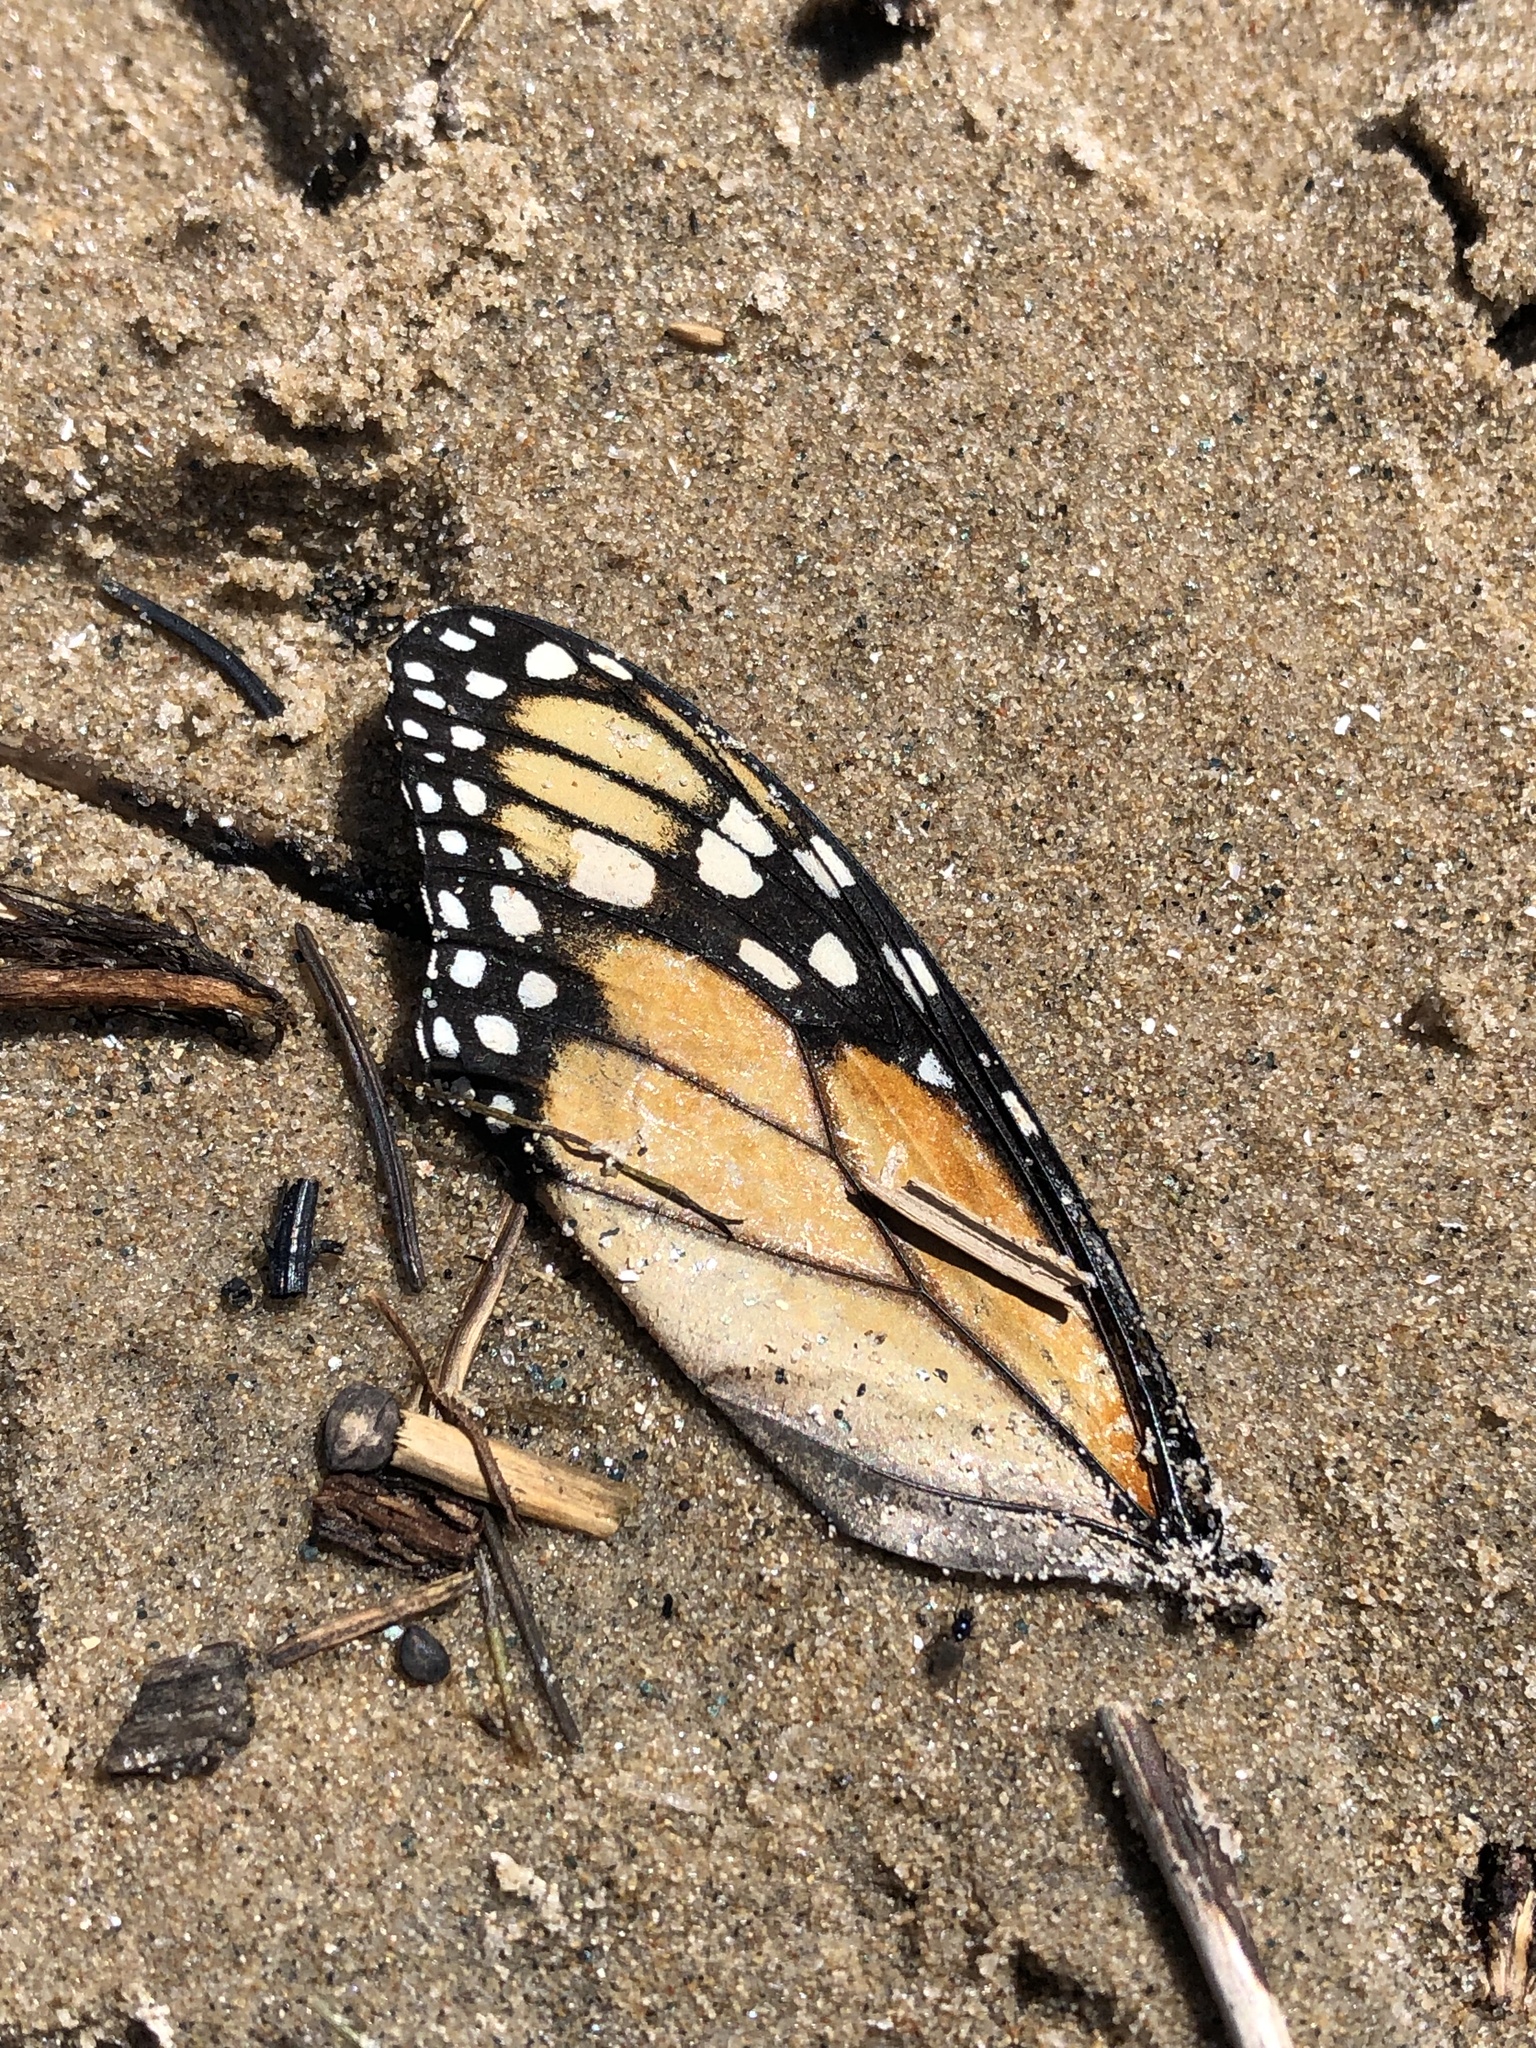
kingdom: Animalia
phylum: Arthropoda
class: Insecta
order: Lepidoptera
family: Nymphalidae
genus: Danaus
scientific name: Danaus plexippus
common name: Monarch
